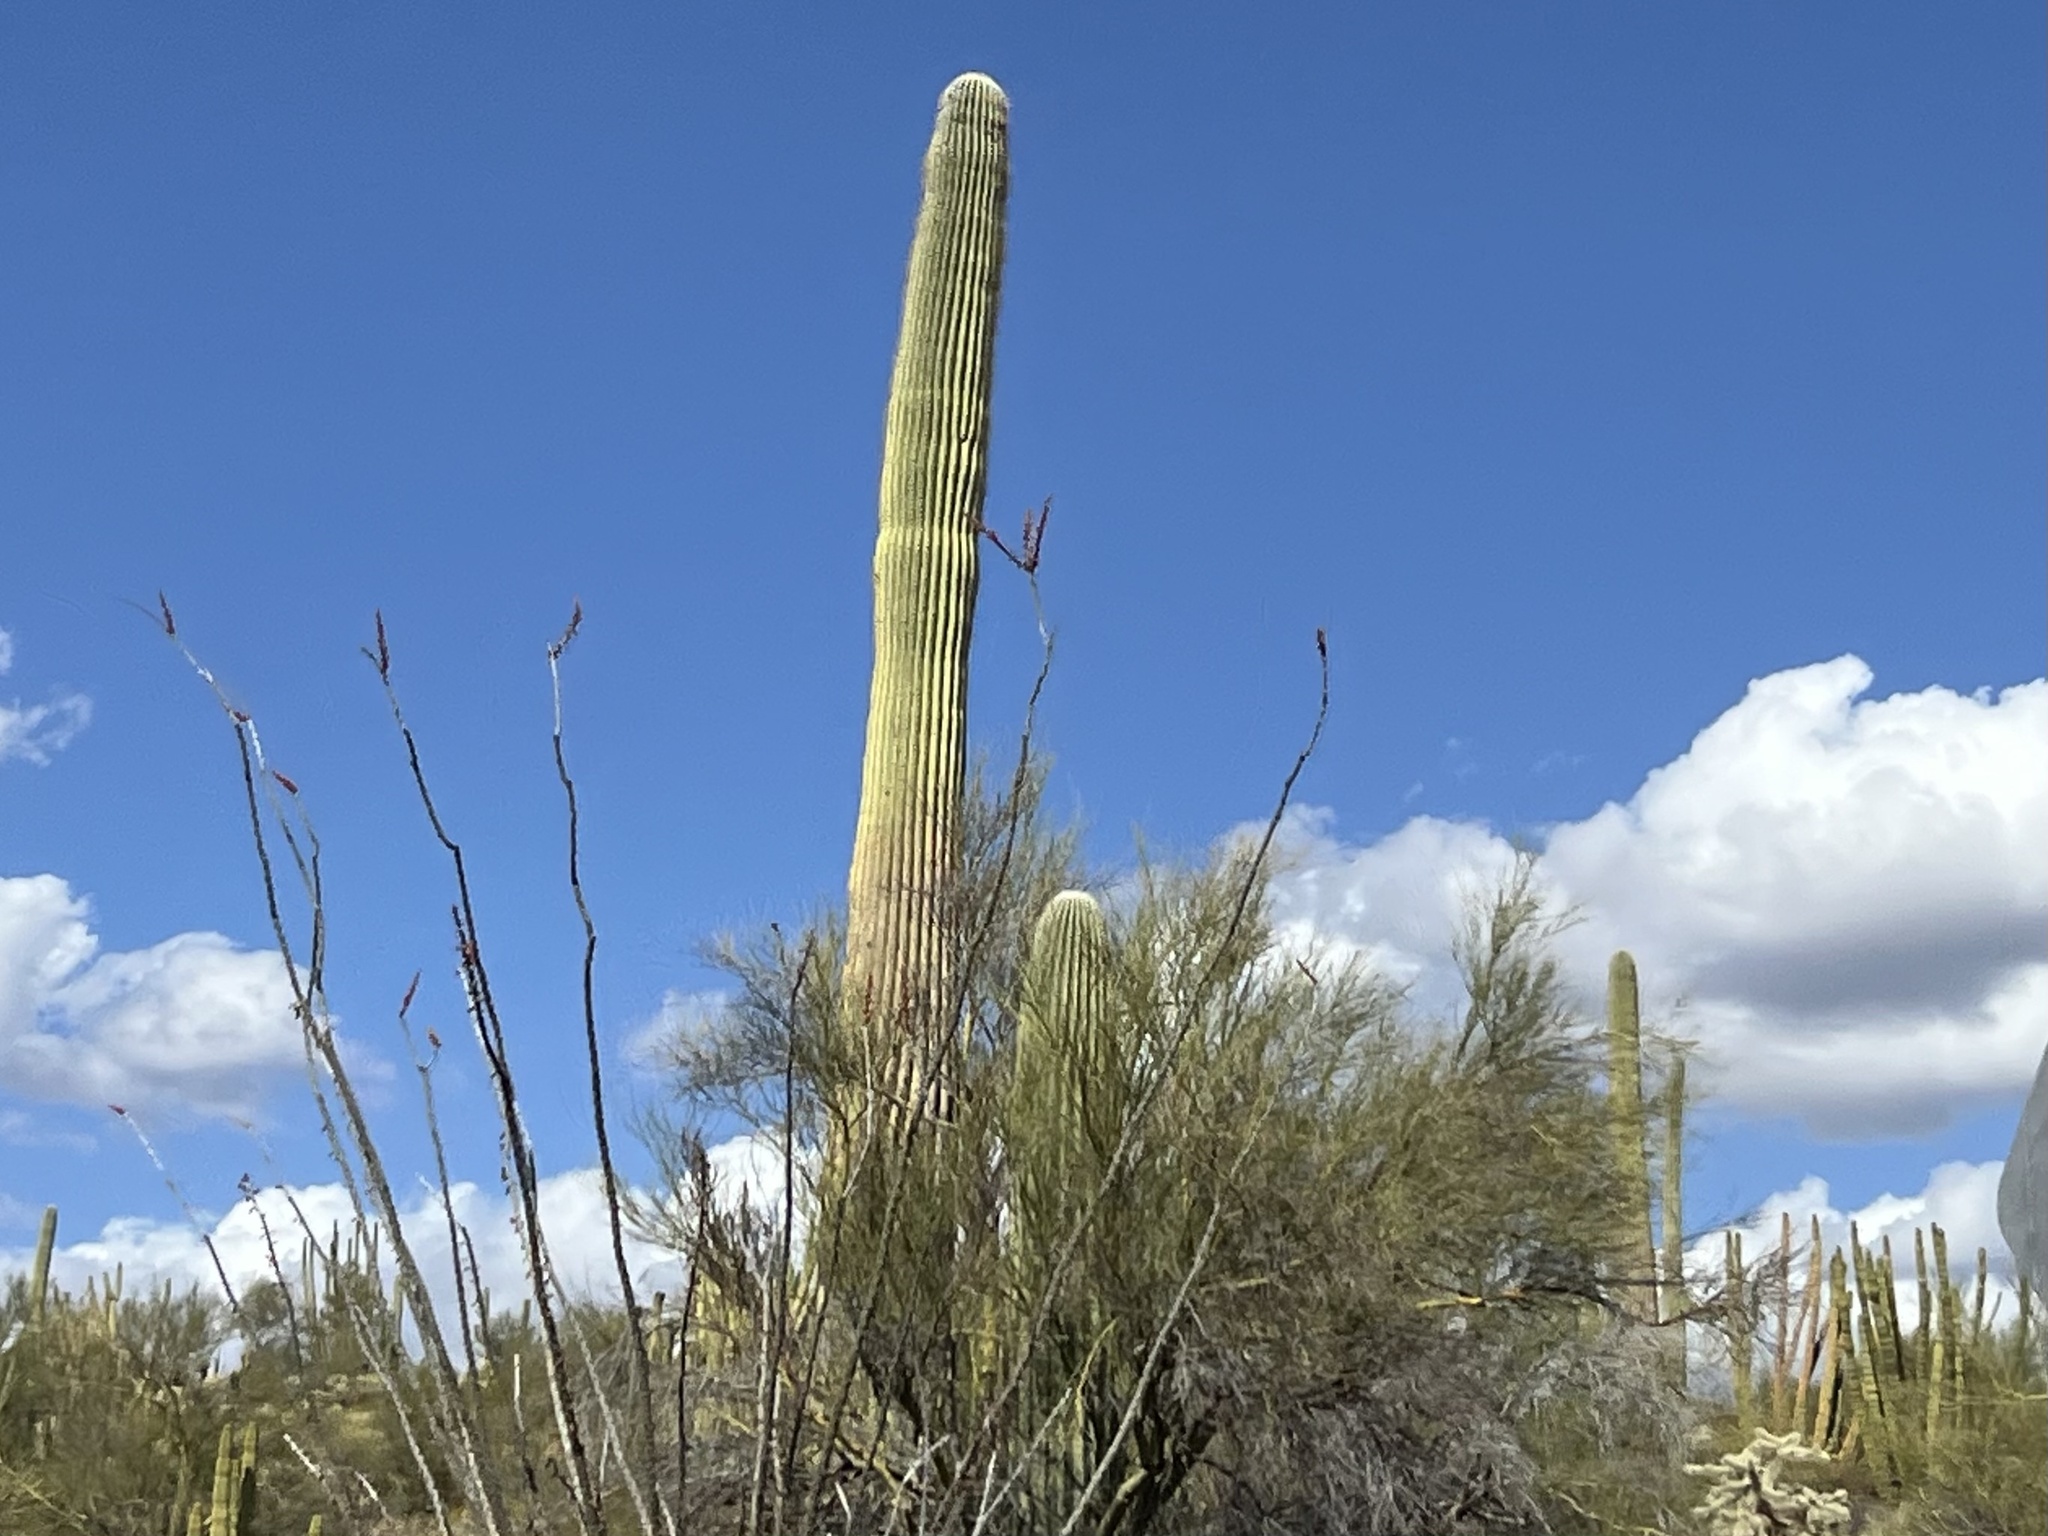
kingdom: Plantae
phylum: Tracheophyta
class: Magnoliopsida
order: Caryophyllales
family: Cactaceae
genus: Carnegiea
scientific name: Carnegiea gigantea
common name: Saguaro
